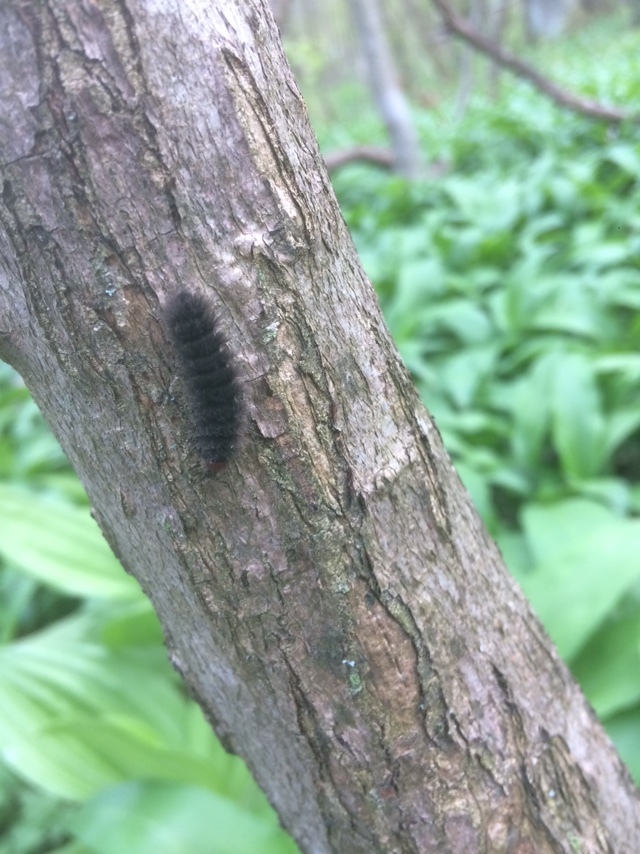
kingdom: Animalia
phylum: Arthropoda
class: Insecta
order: Lepidoptera
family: Erebidae
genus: Amata
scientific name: Amata phegea
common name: Nine-spotted
